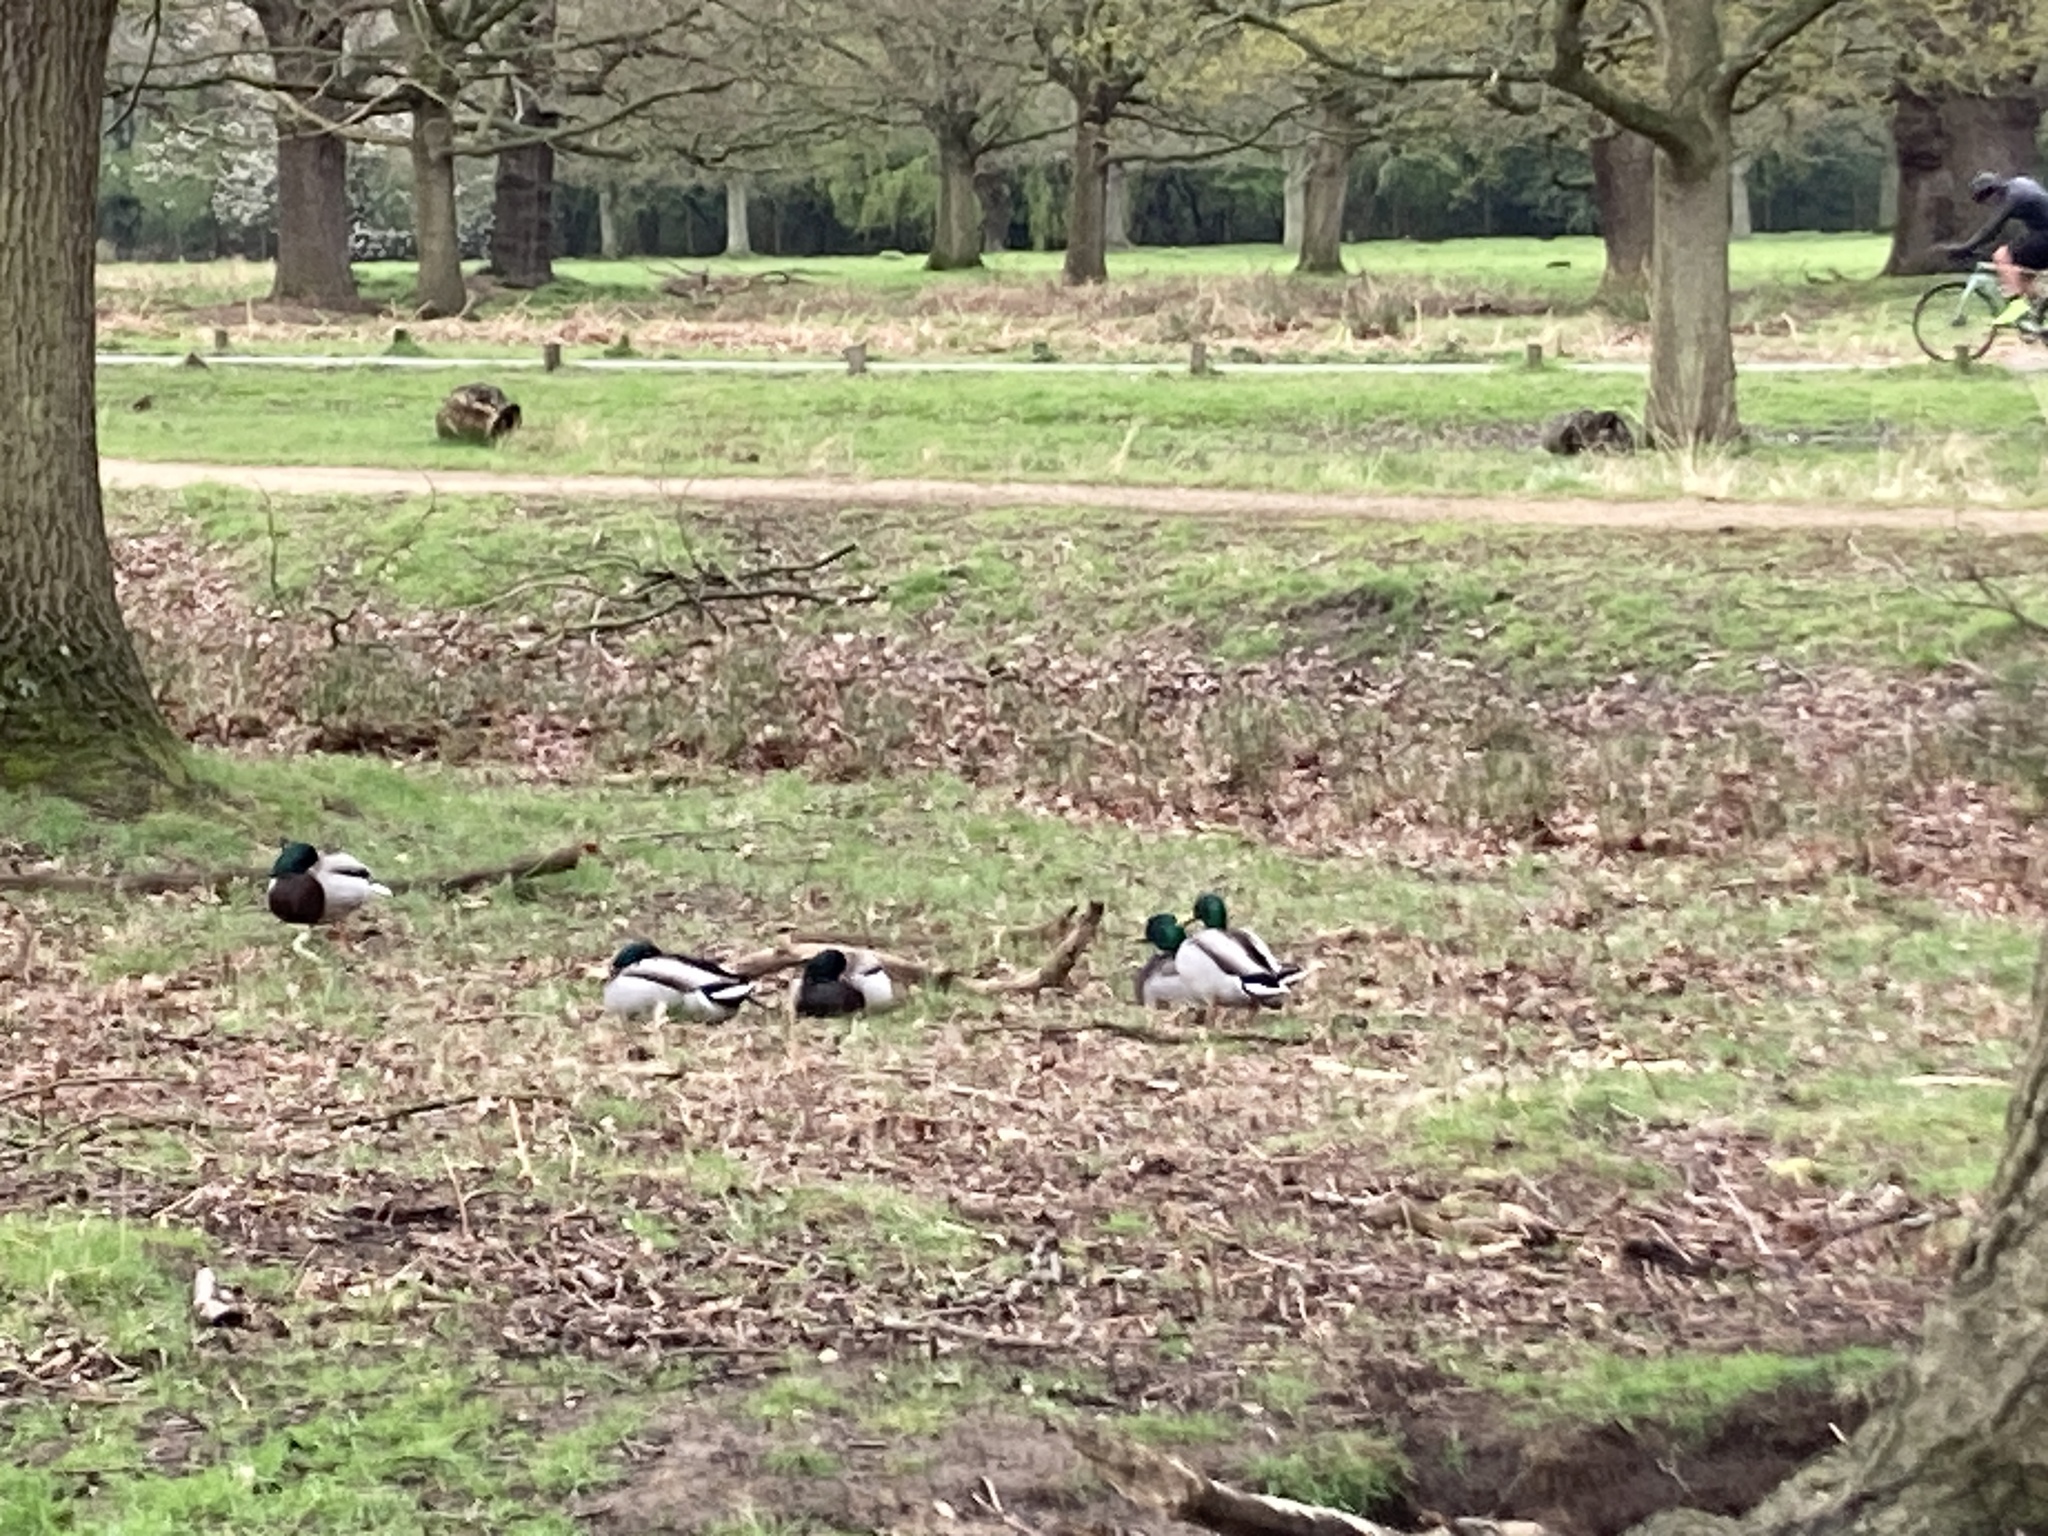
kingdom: Animalia
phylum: Chordata
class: Aves
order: Anseriformes
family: Anatidae
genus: Anas
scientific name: Anas platyrhynchos
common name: Mallard
